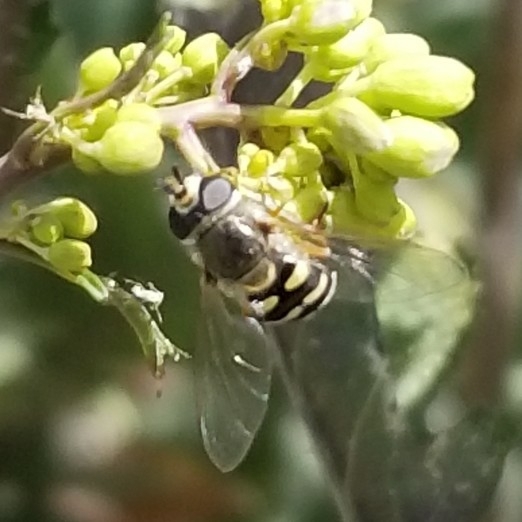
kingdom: Animalia
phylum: Arthropoda
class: Insecta
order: Diptera
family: Syrphidae
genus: Eupeodes
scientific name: Eupeodes volucris
